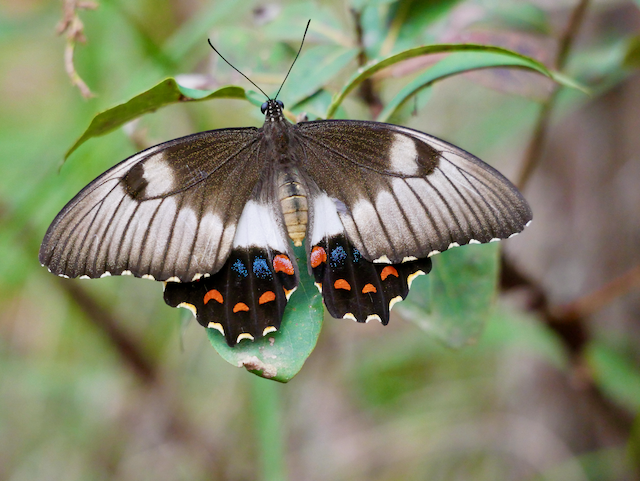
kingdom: Animalia
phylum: Arthropoda
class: Insecta
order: Lepidoptera
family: Papilionidae
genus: Papilio
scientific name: Papilio aegeus
